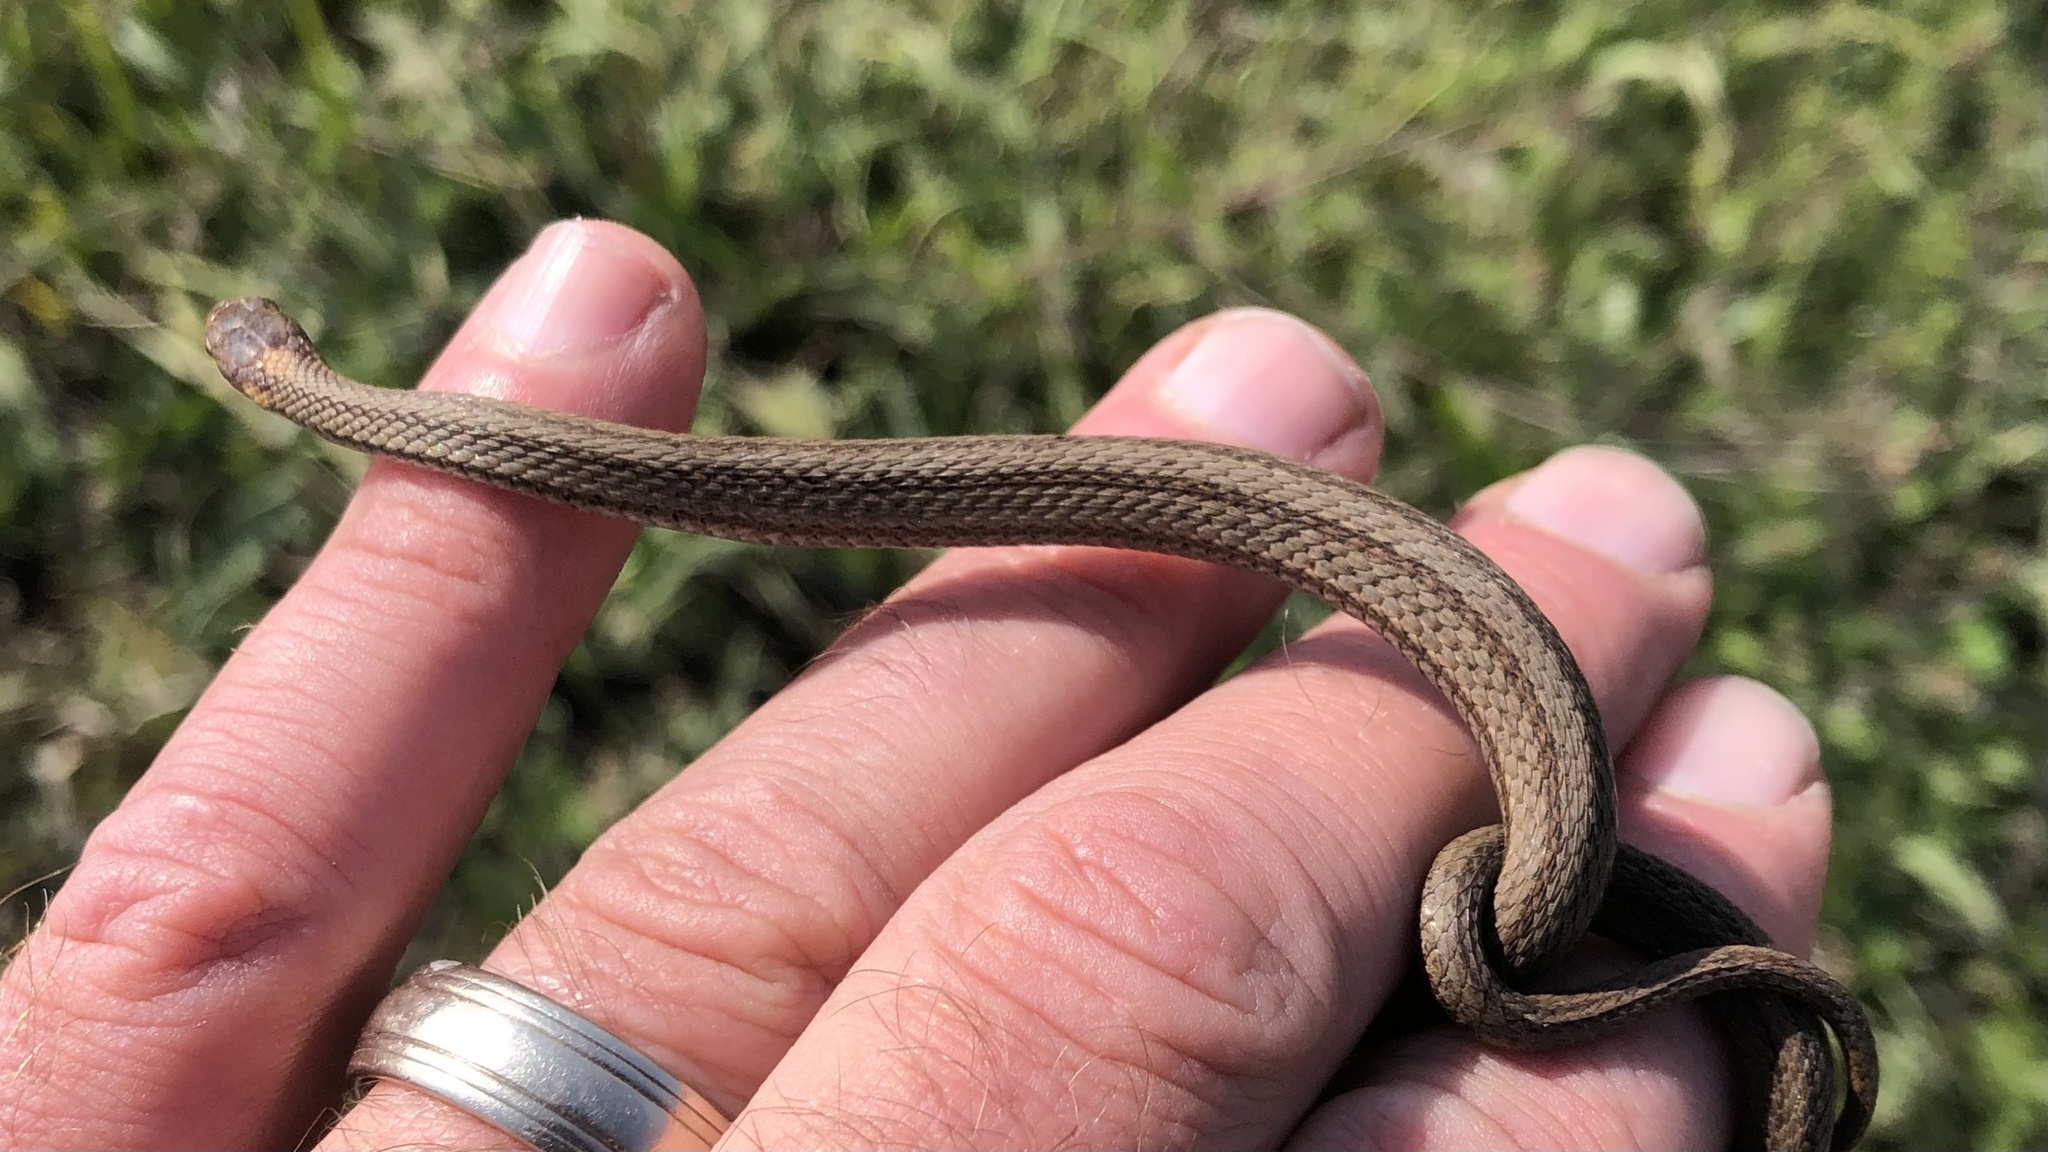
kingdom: Animalia
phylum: Chordata
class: Squamata
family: Colubridae
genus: Storeria
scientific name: Storeria occipitomaculata
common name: Redbelly snake
